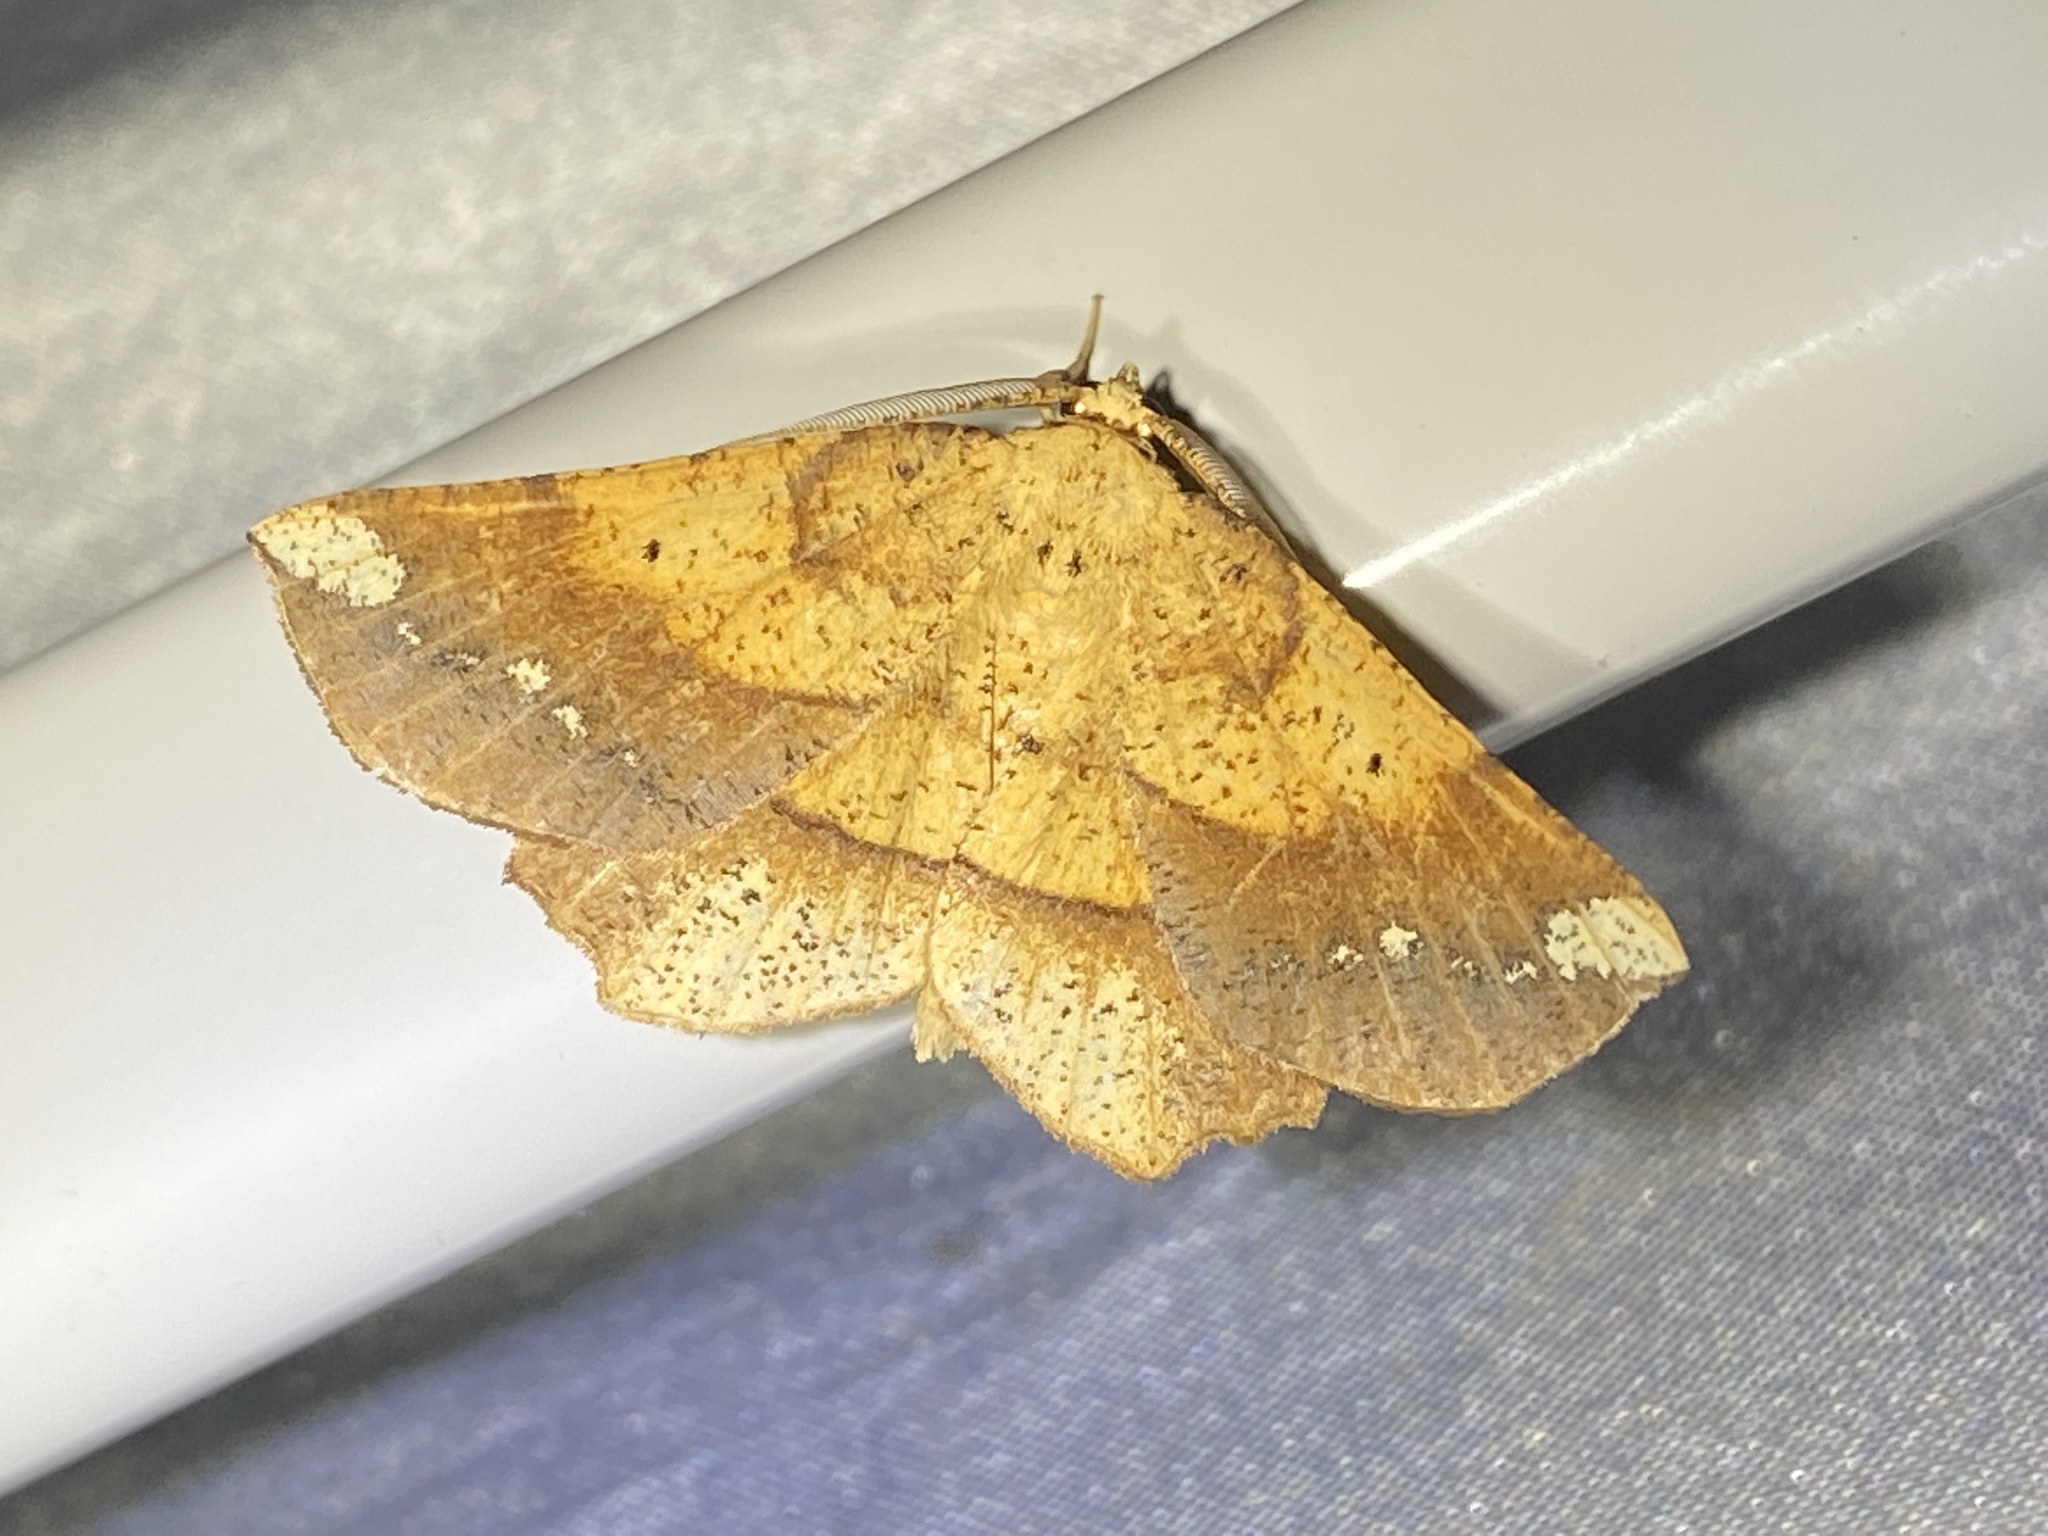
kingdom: Animalia
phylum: Arthropoda
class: Insecta
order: Lepidoptera
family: Geometridae
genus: Euchlaena
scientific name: Euchlaena amoenaria
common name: Deep yellow euchlaena
